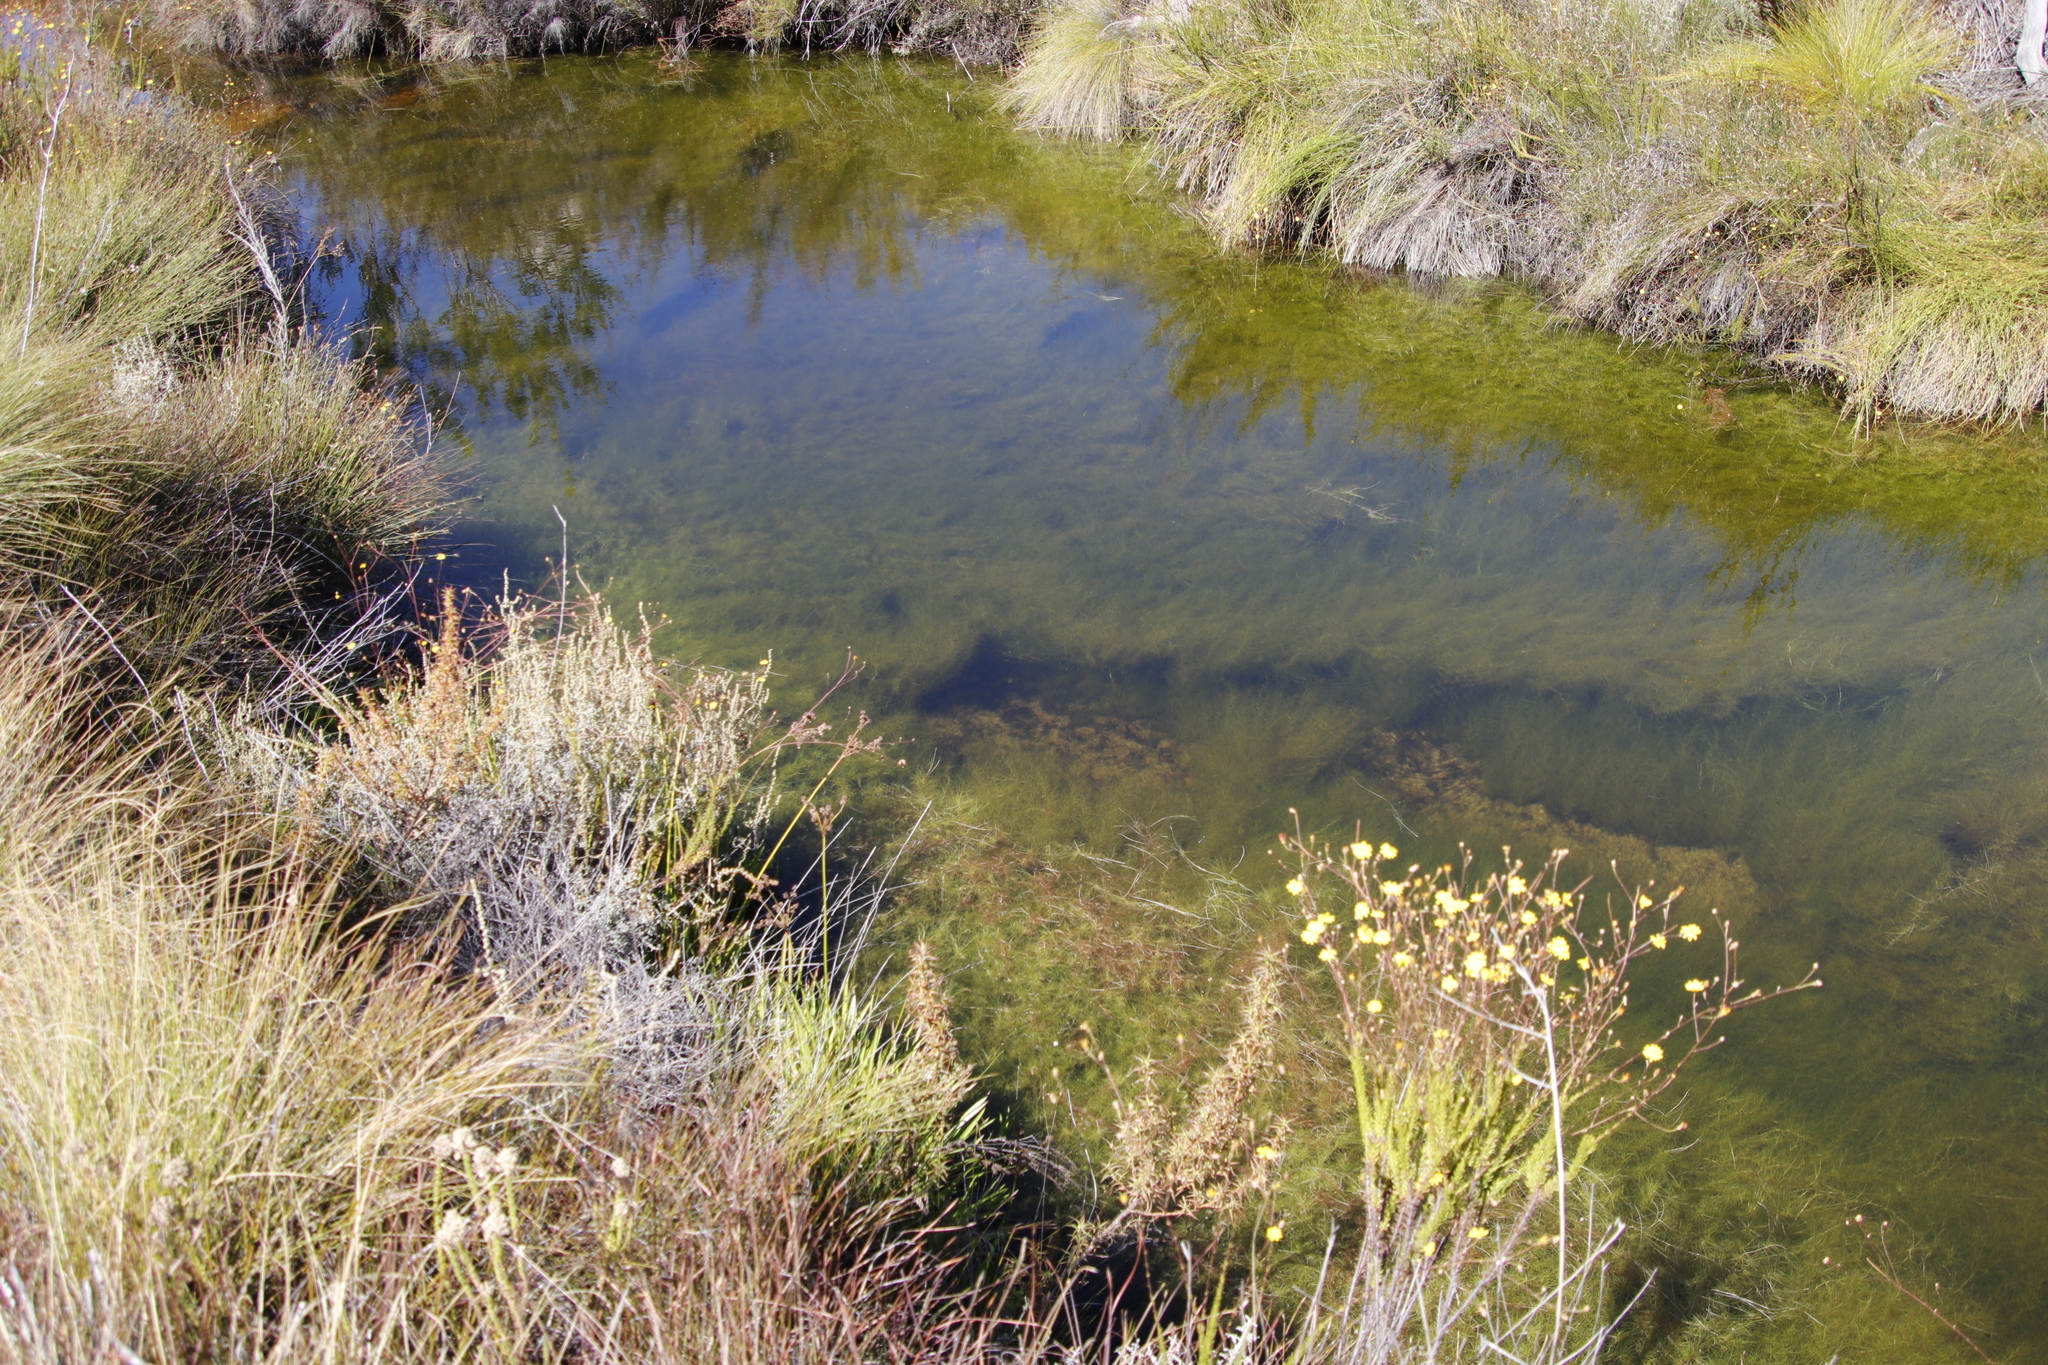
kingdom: Plantae
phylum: Tracheophyta
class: Magnoliopsida
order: Asterales
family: Asteraceae
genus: Seriphium
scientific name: Seriphium plumosum
